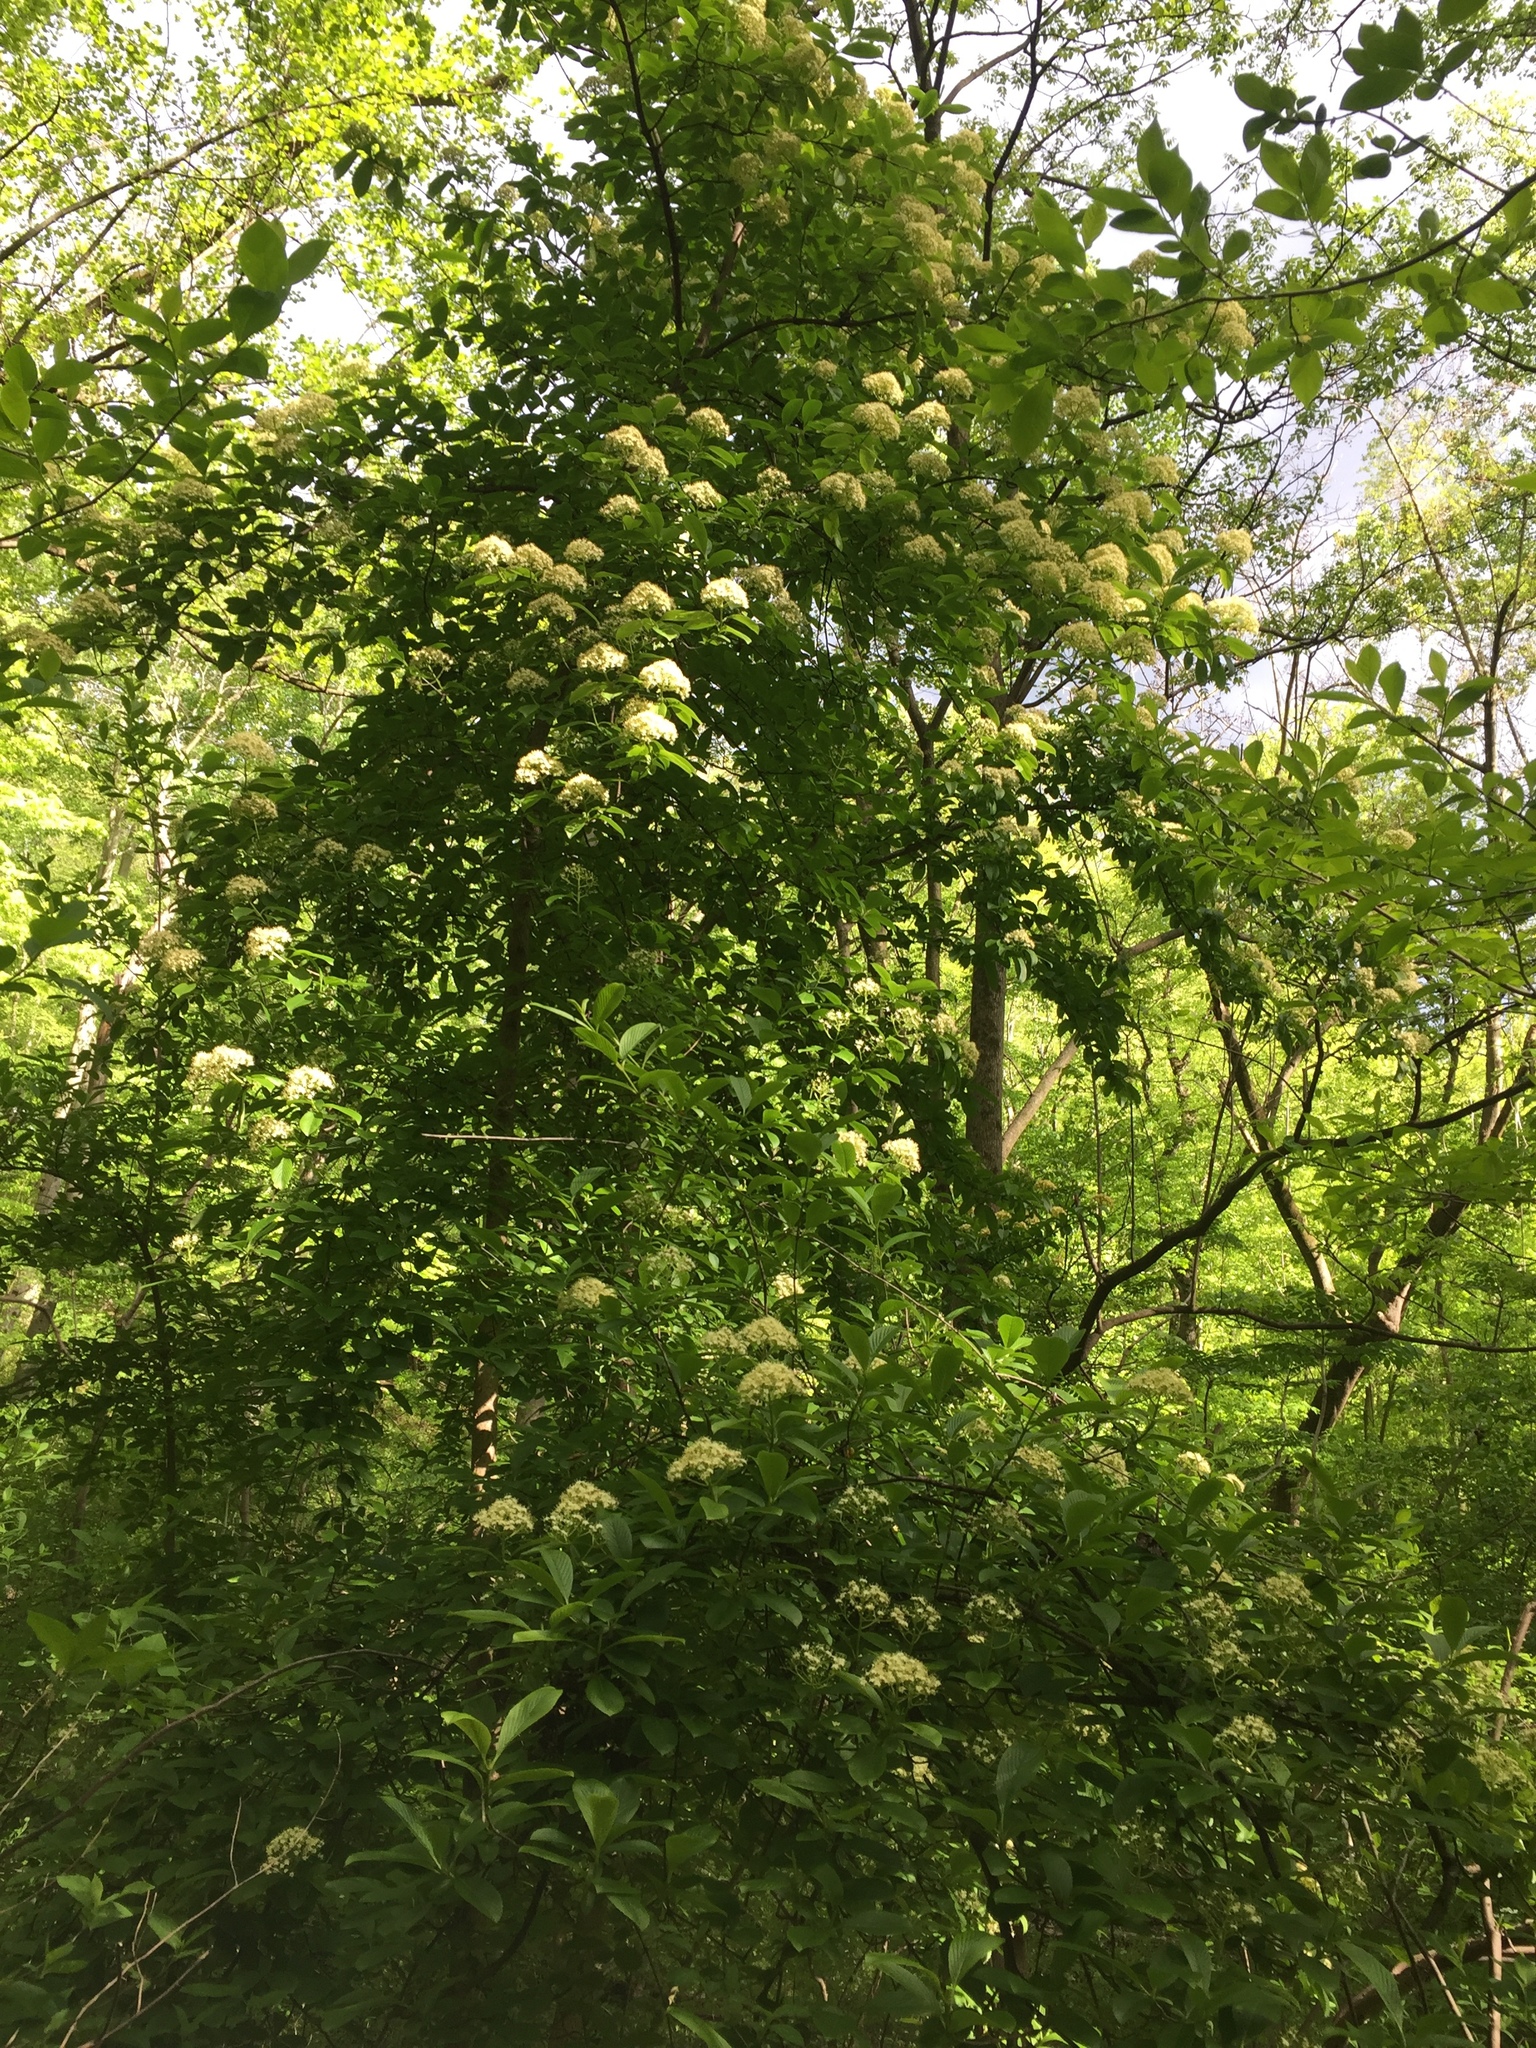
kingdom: Plantae
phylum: Tracheophyta
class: Magnoliopsida
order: Dipsacales
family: Viburnaceae
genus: Viburnum
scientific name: Viburnum sieboldii
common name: Siebold's arrowwood
